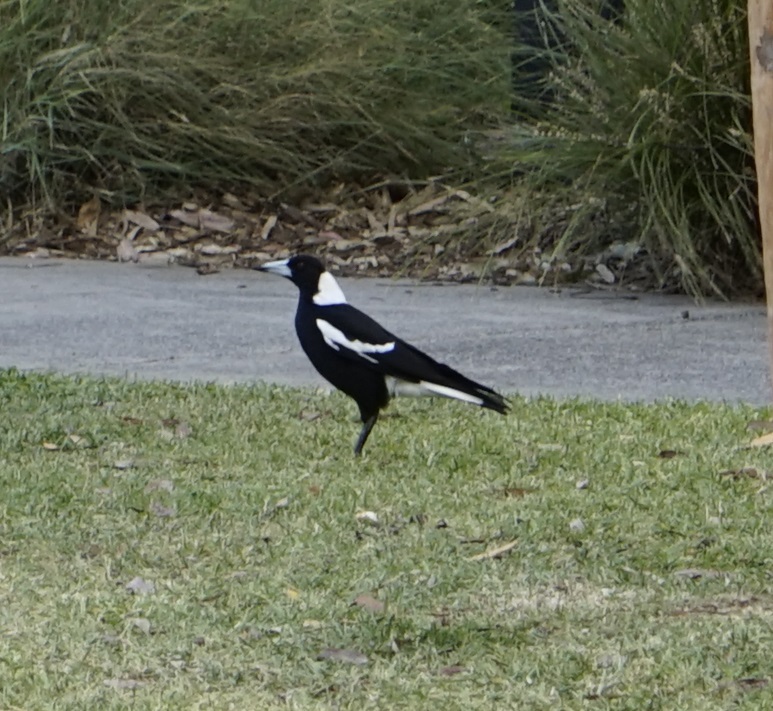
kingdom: Animalia
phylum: Chordata
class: Aves
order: Passeriformes
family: Cracticidae
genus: Gymnorhina
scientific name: Gymnorhina tibicen
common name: Australian magpie
